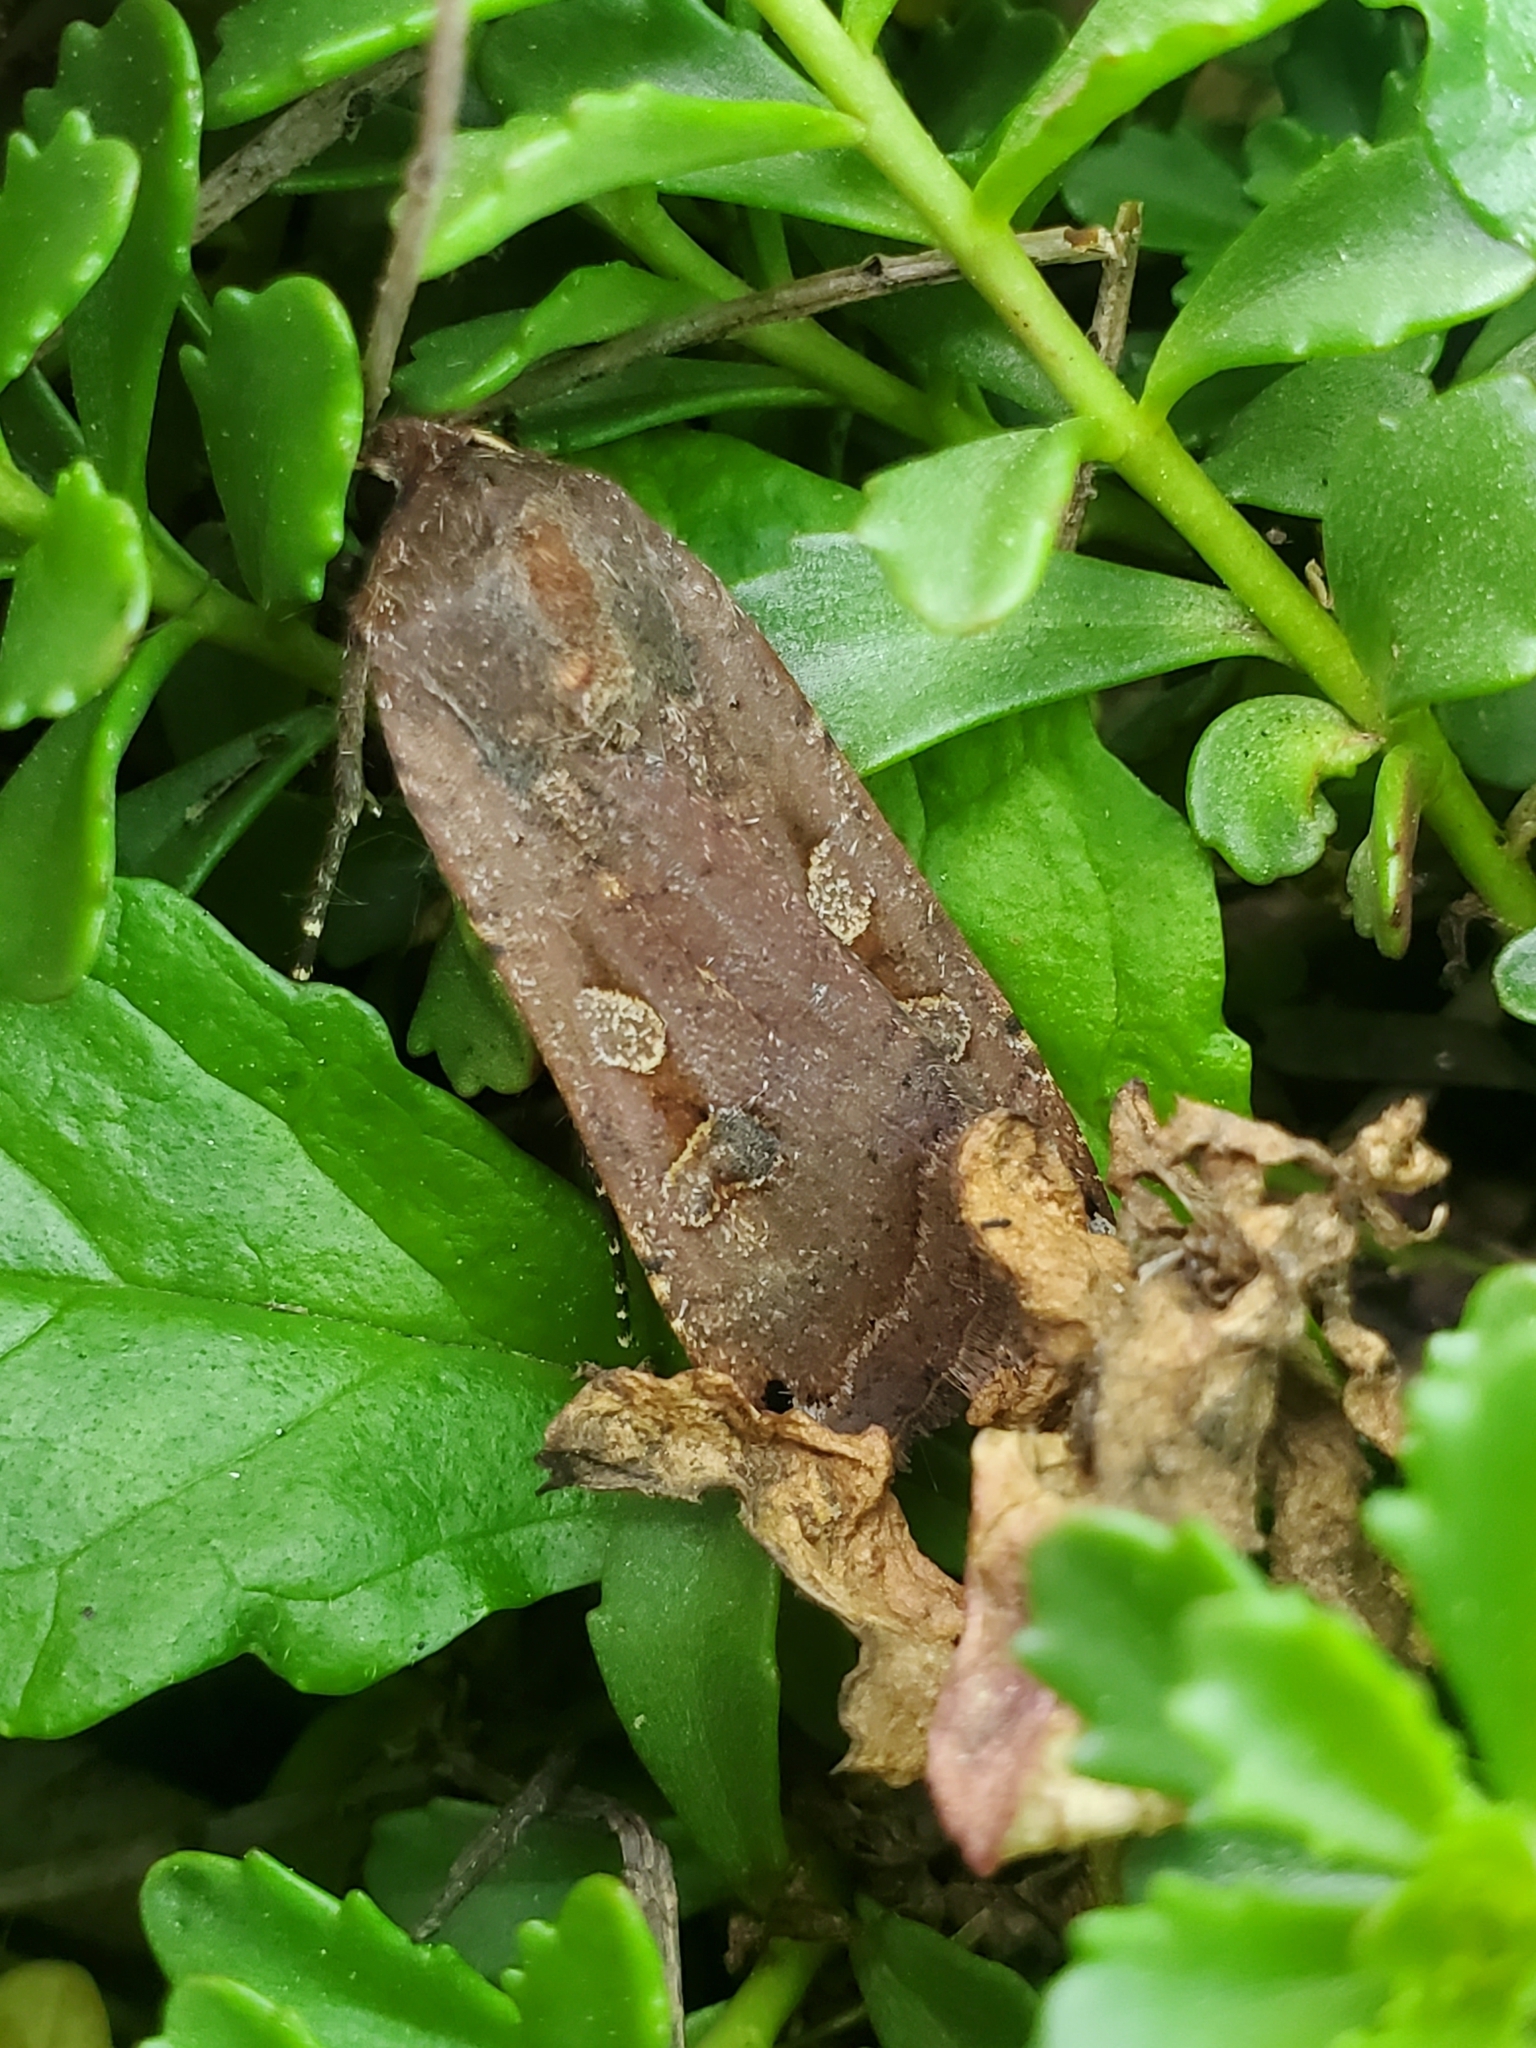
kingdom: Animalia
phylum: Arthropoda
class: Insecta
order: Lepidoptera
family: Noctuidae
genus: Noctua
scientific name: Noctua pronuba
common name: Large yellow underwing
